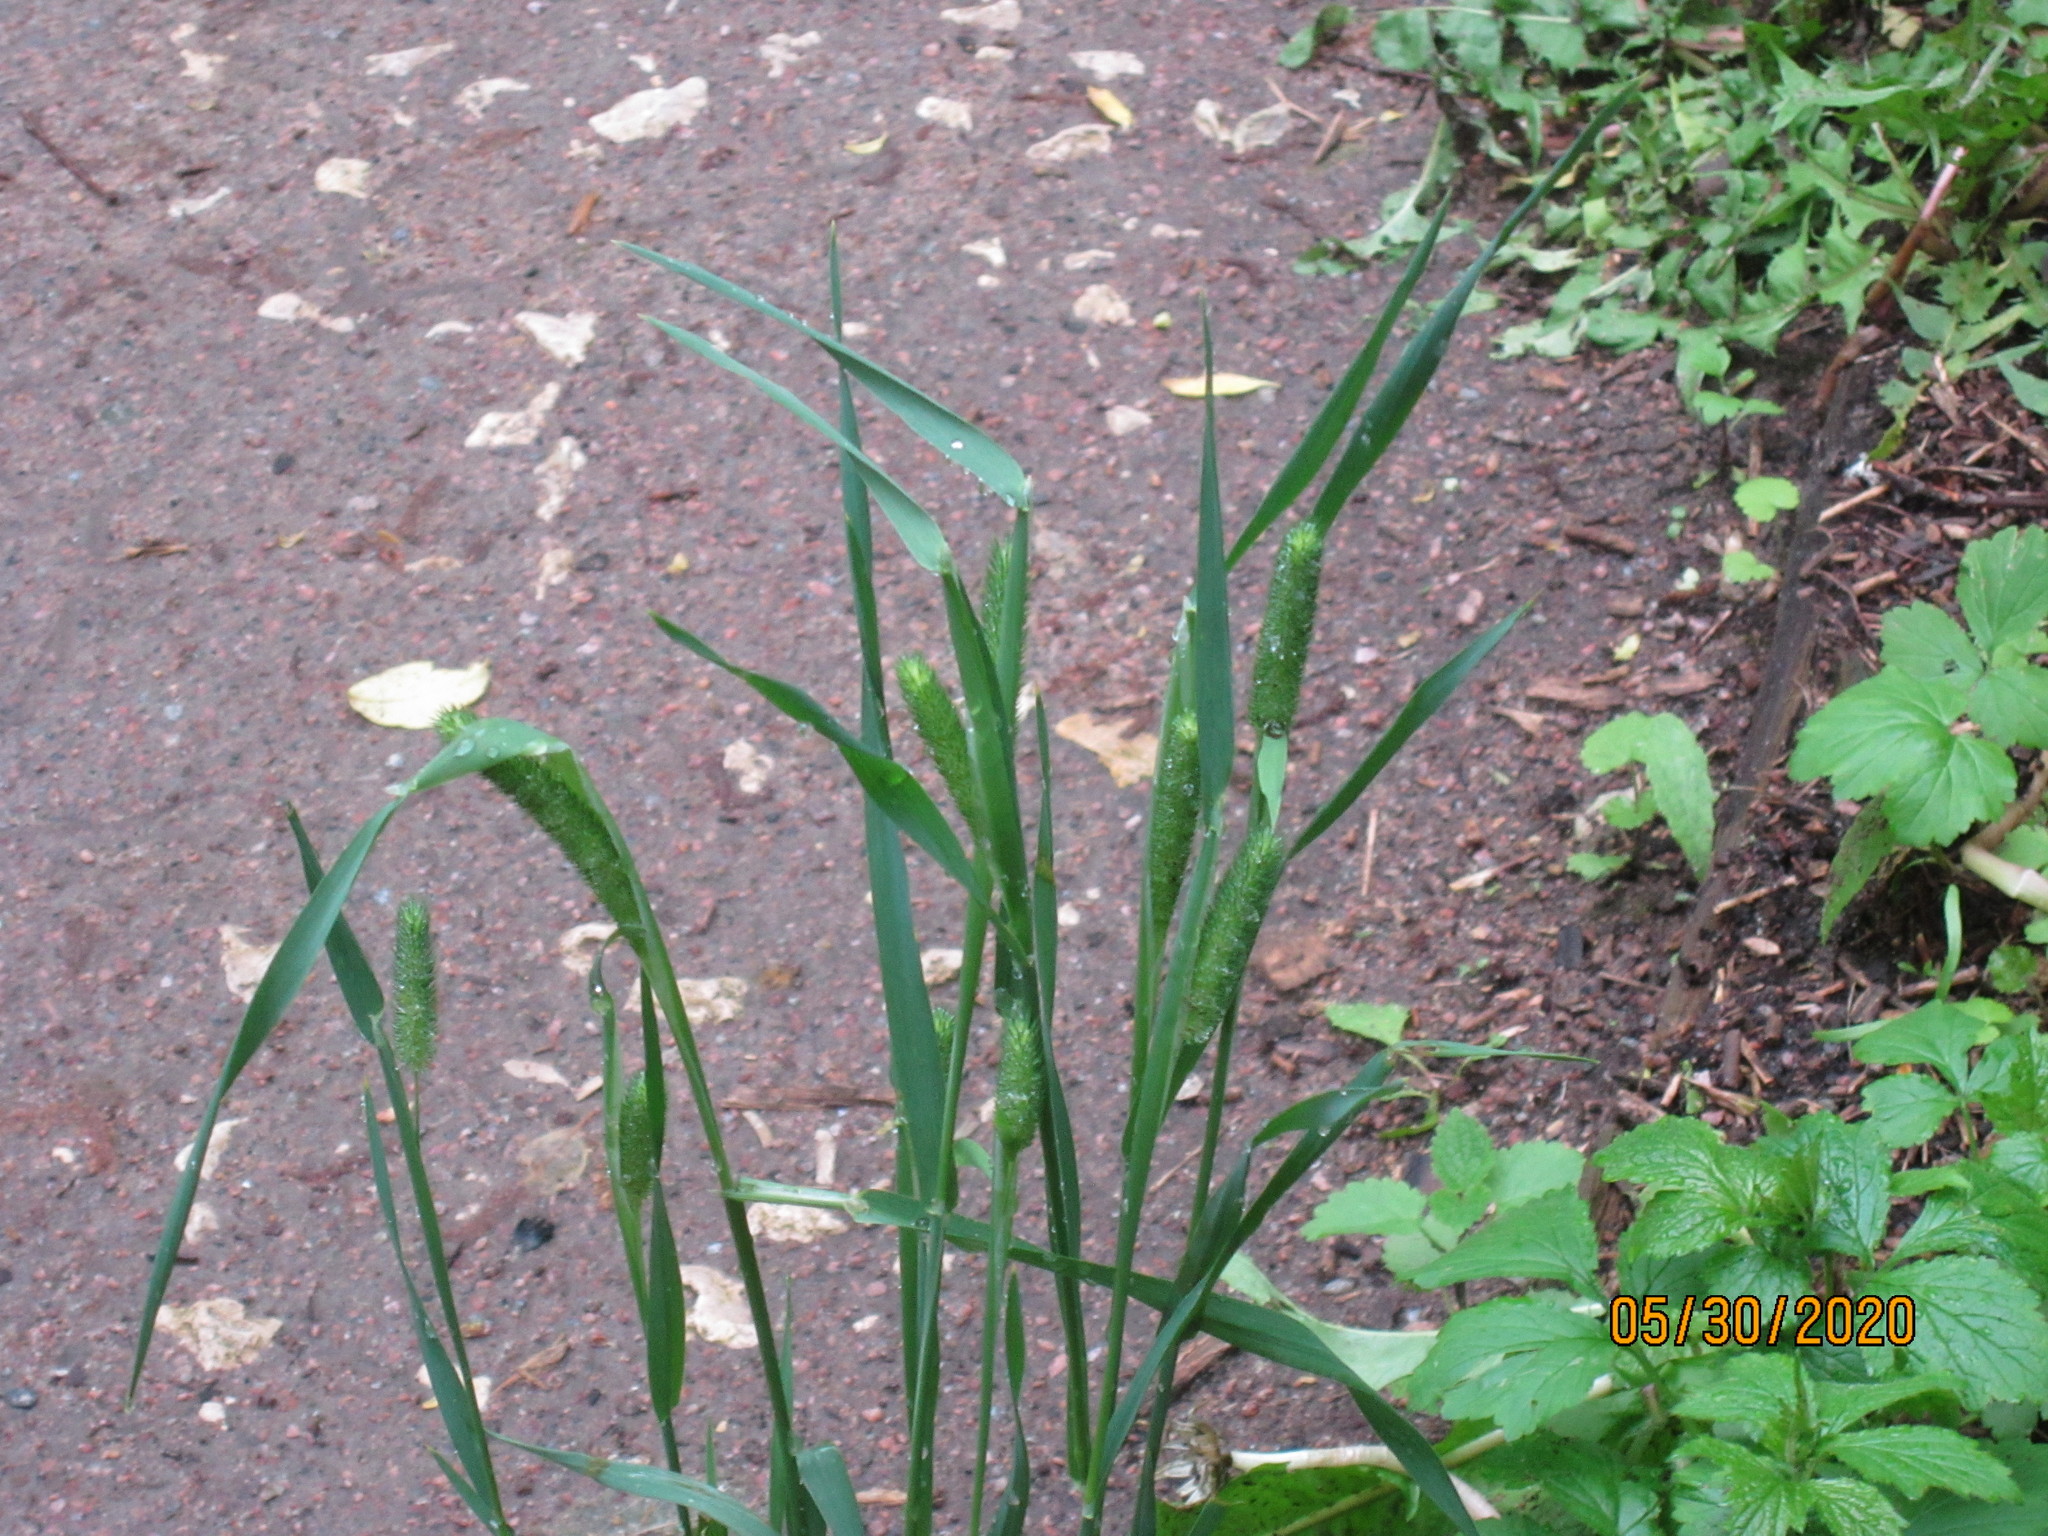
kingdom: Plantae
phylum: Tracheophyta
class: Liliopsida
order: Poales
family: Poaceae
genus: Phleum
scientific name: Phleum pratense
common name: Timothy grass
